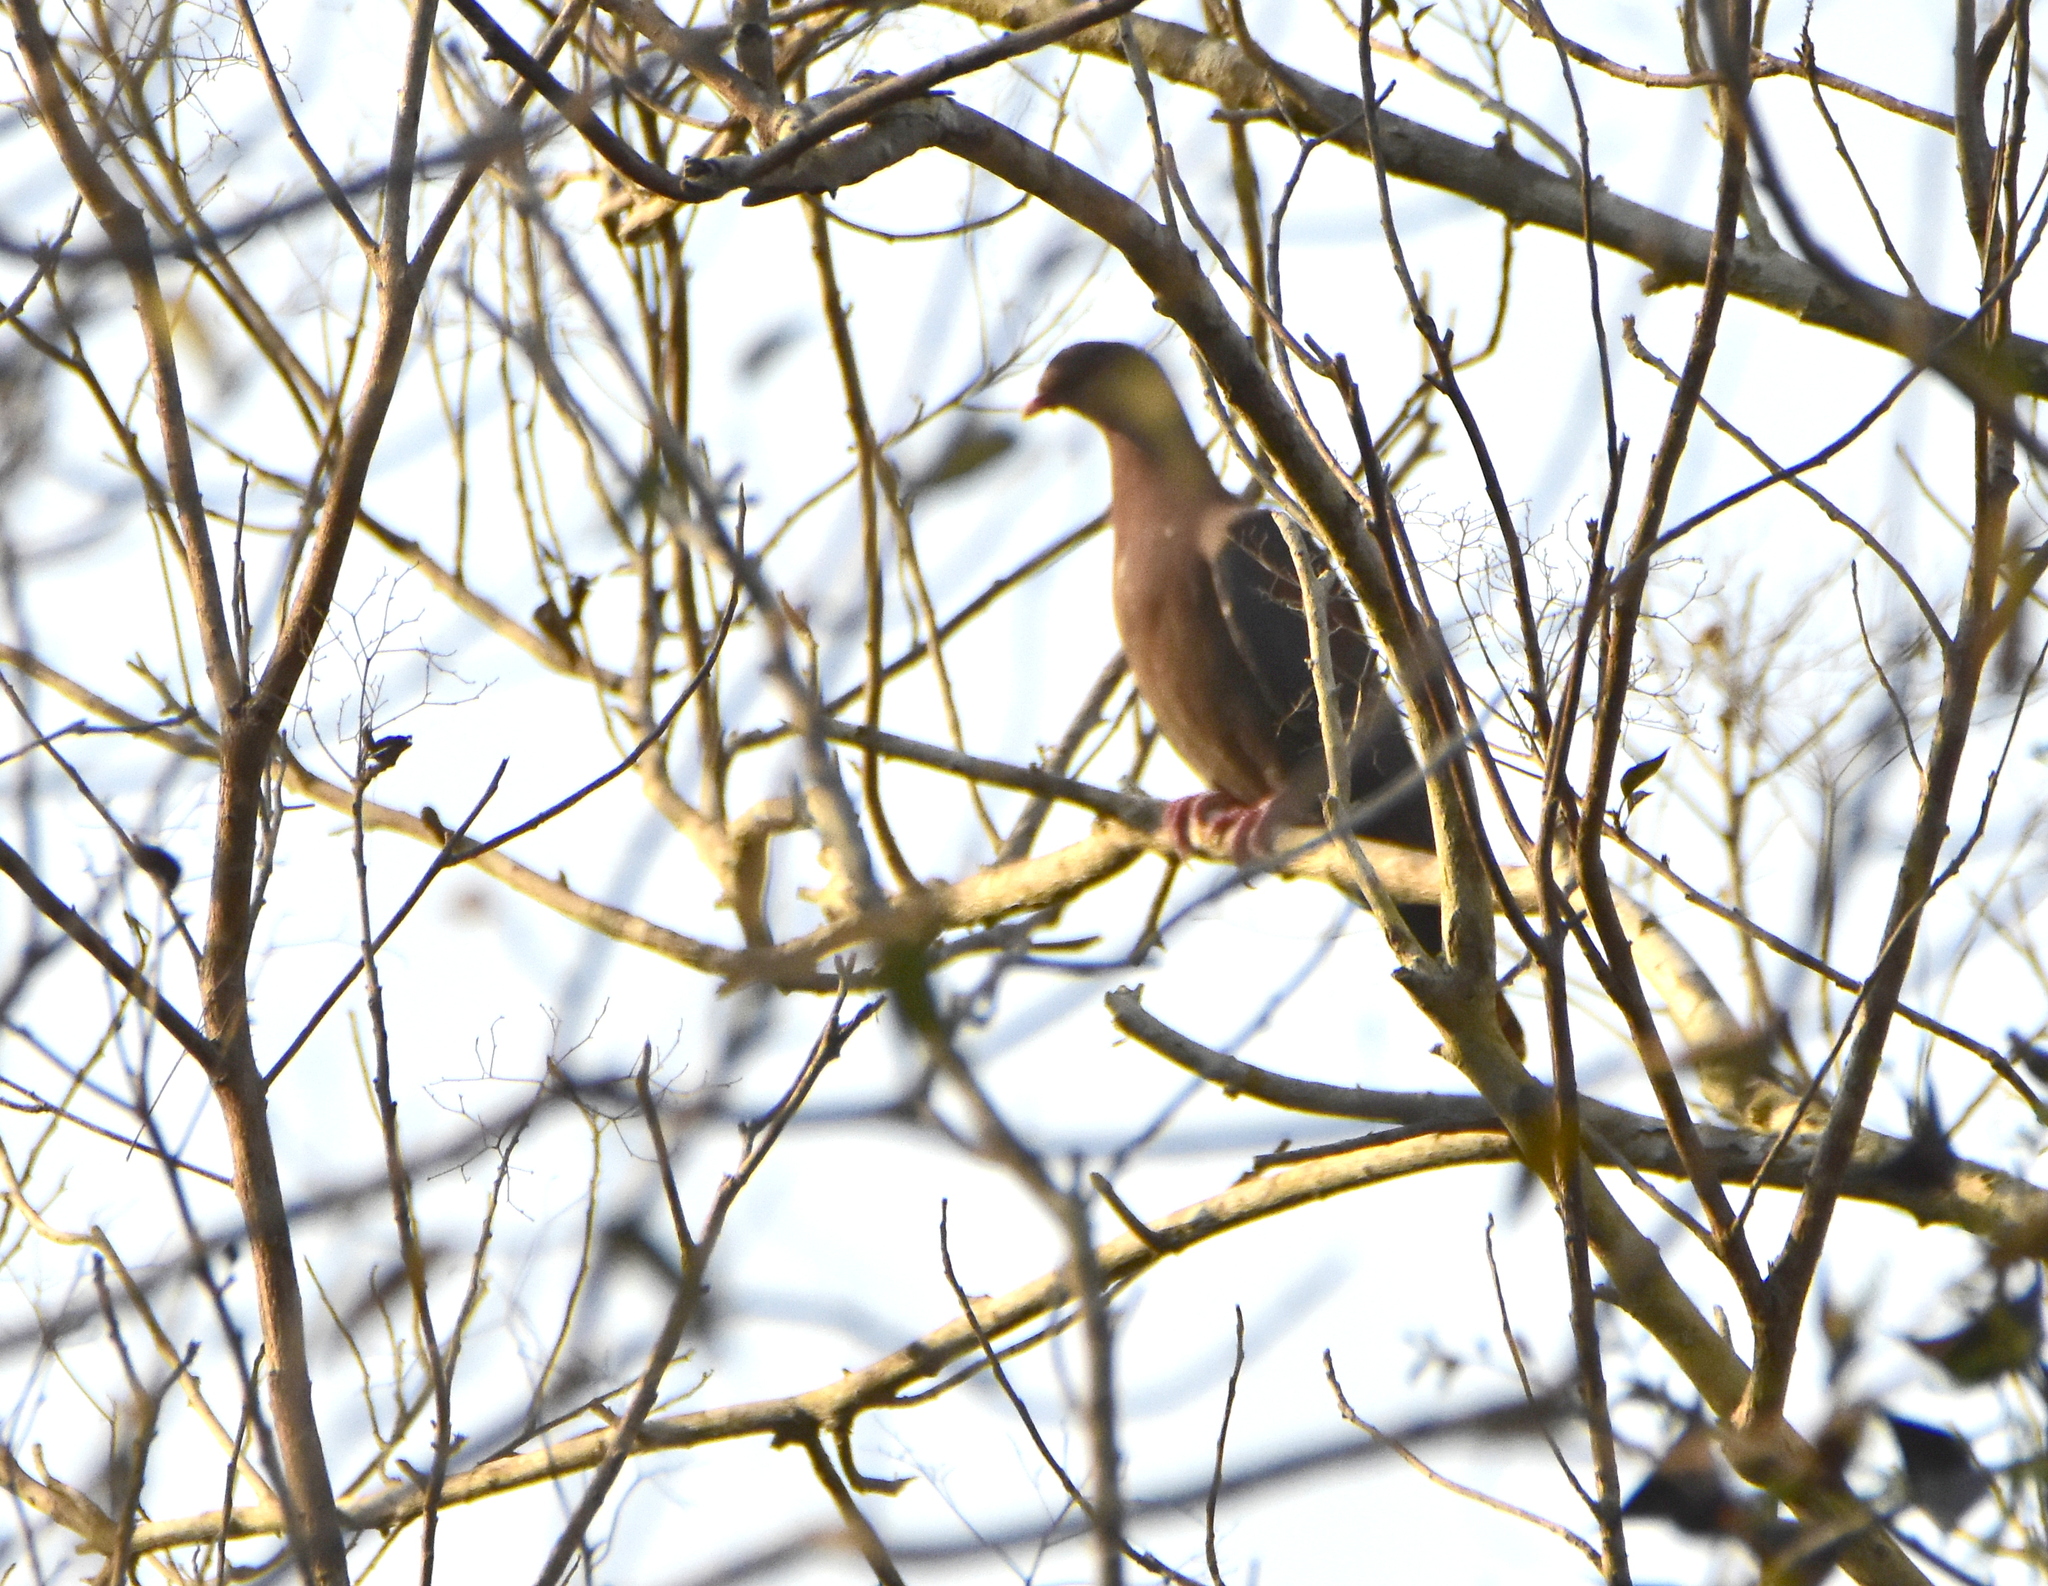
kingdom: Animalia
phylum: Chordata
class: Aves
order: Columbiformes
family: Columbidae
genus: Patagioenas
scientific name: Patagioenas flavirostris
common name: Red-billed pigeon
